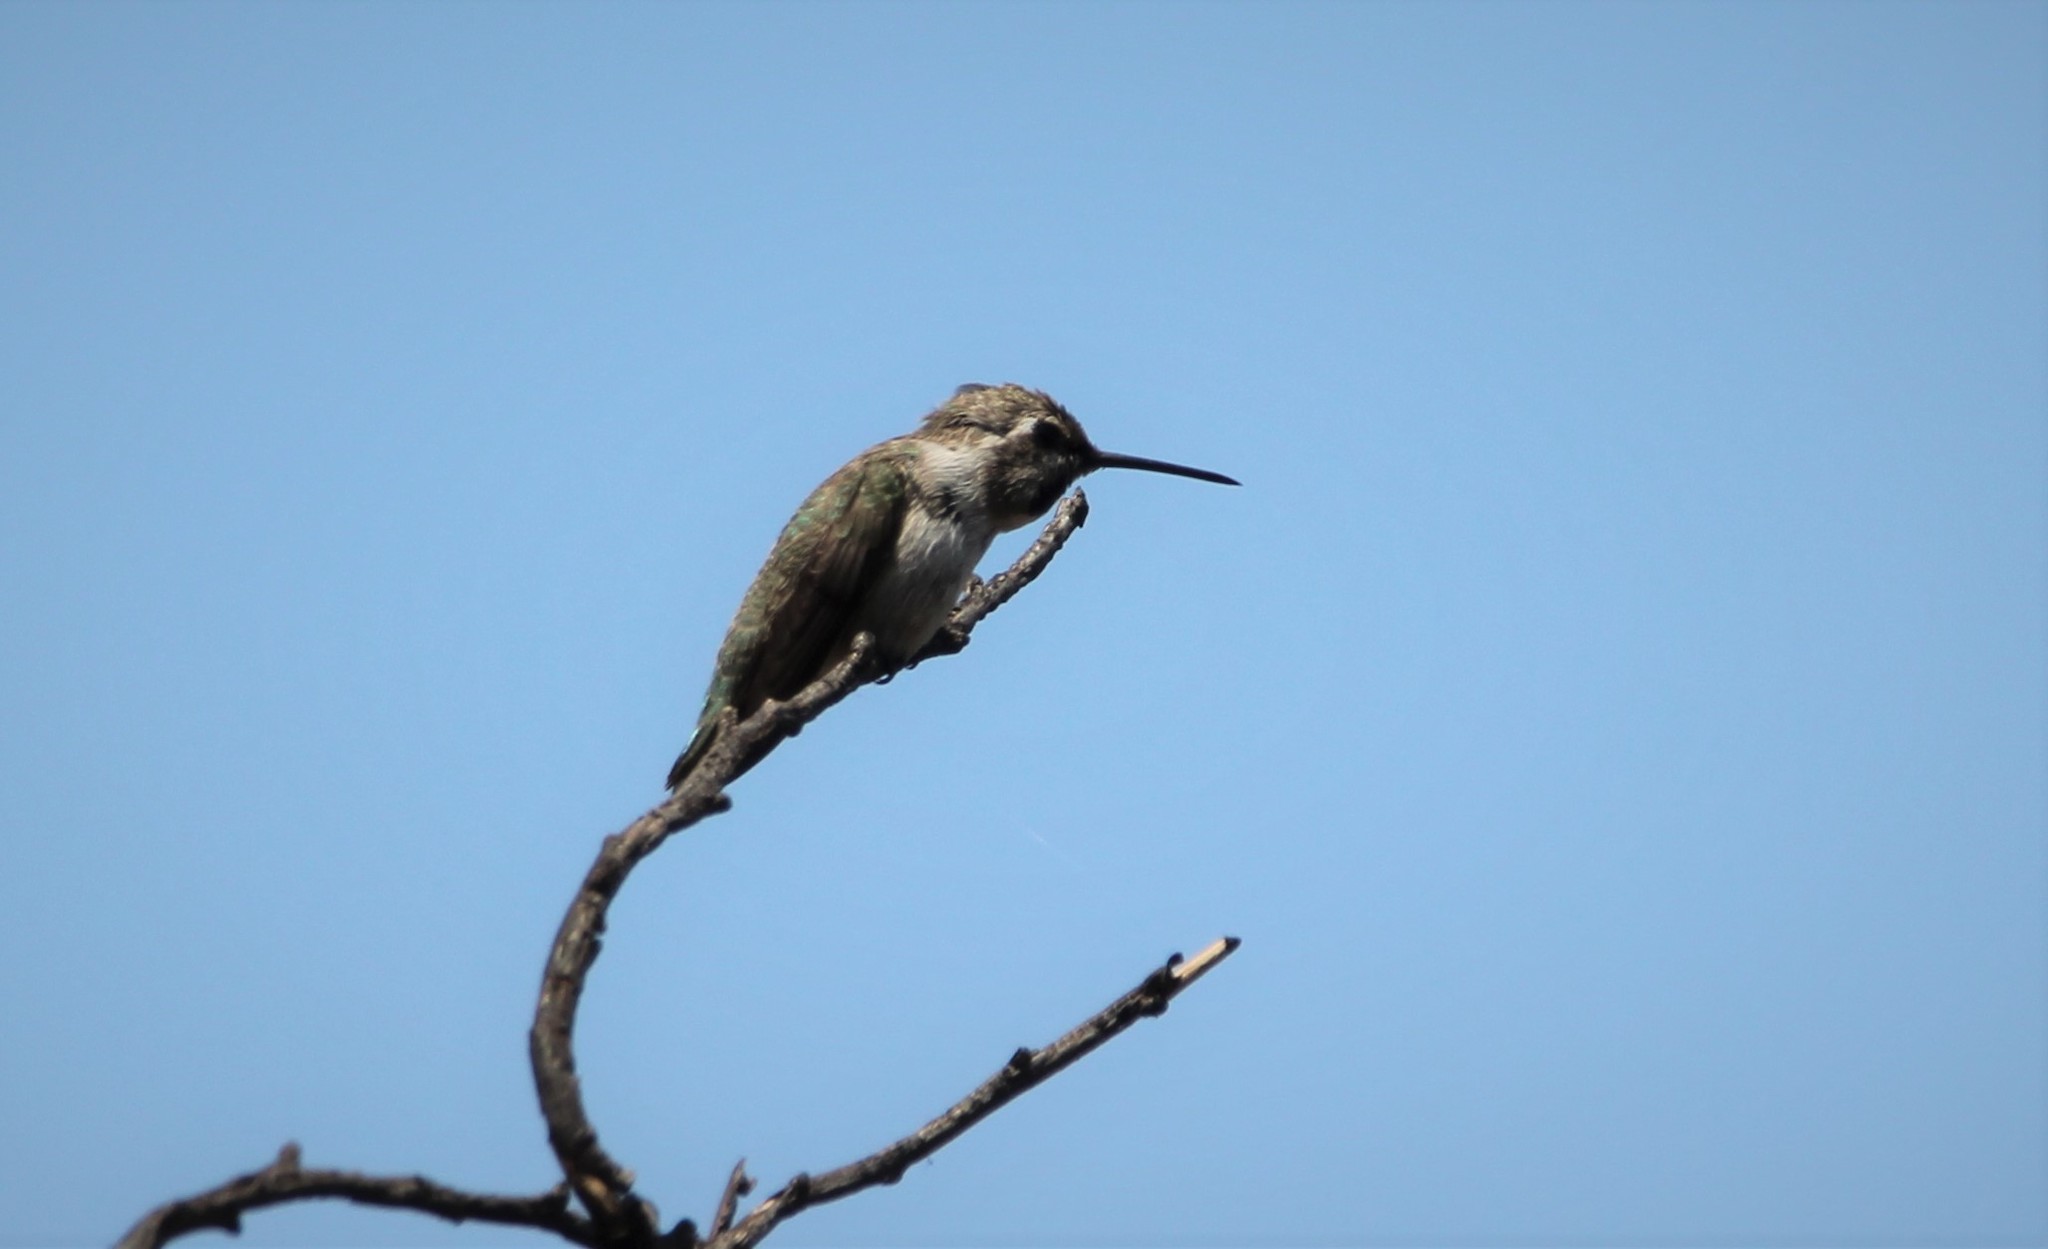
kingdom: Animalia
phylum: Chordata
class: Aves
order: Apodiformes
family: Trochilidae
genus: Calypte
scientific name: Calypte costae
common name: Costa's hummingbird
